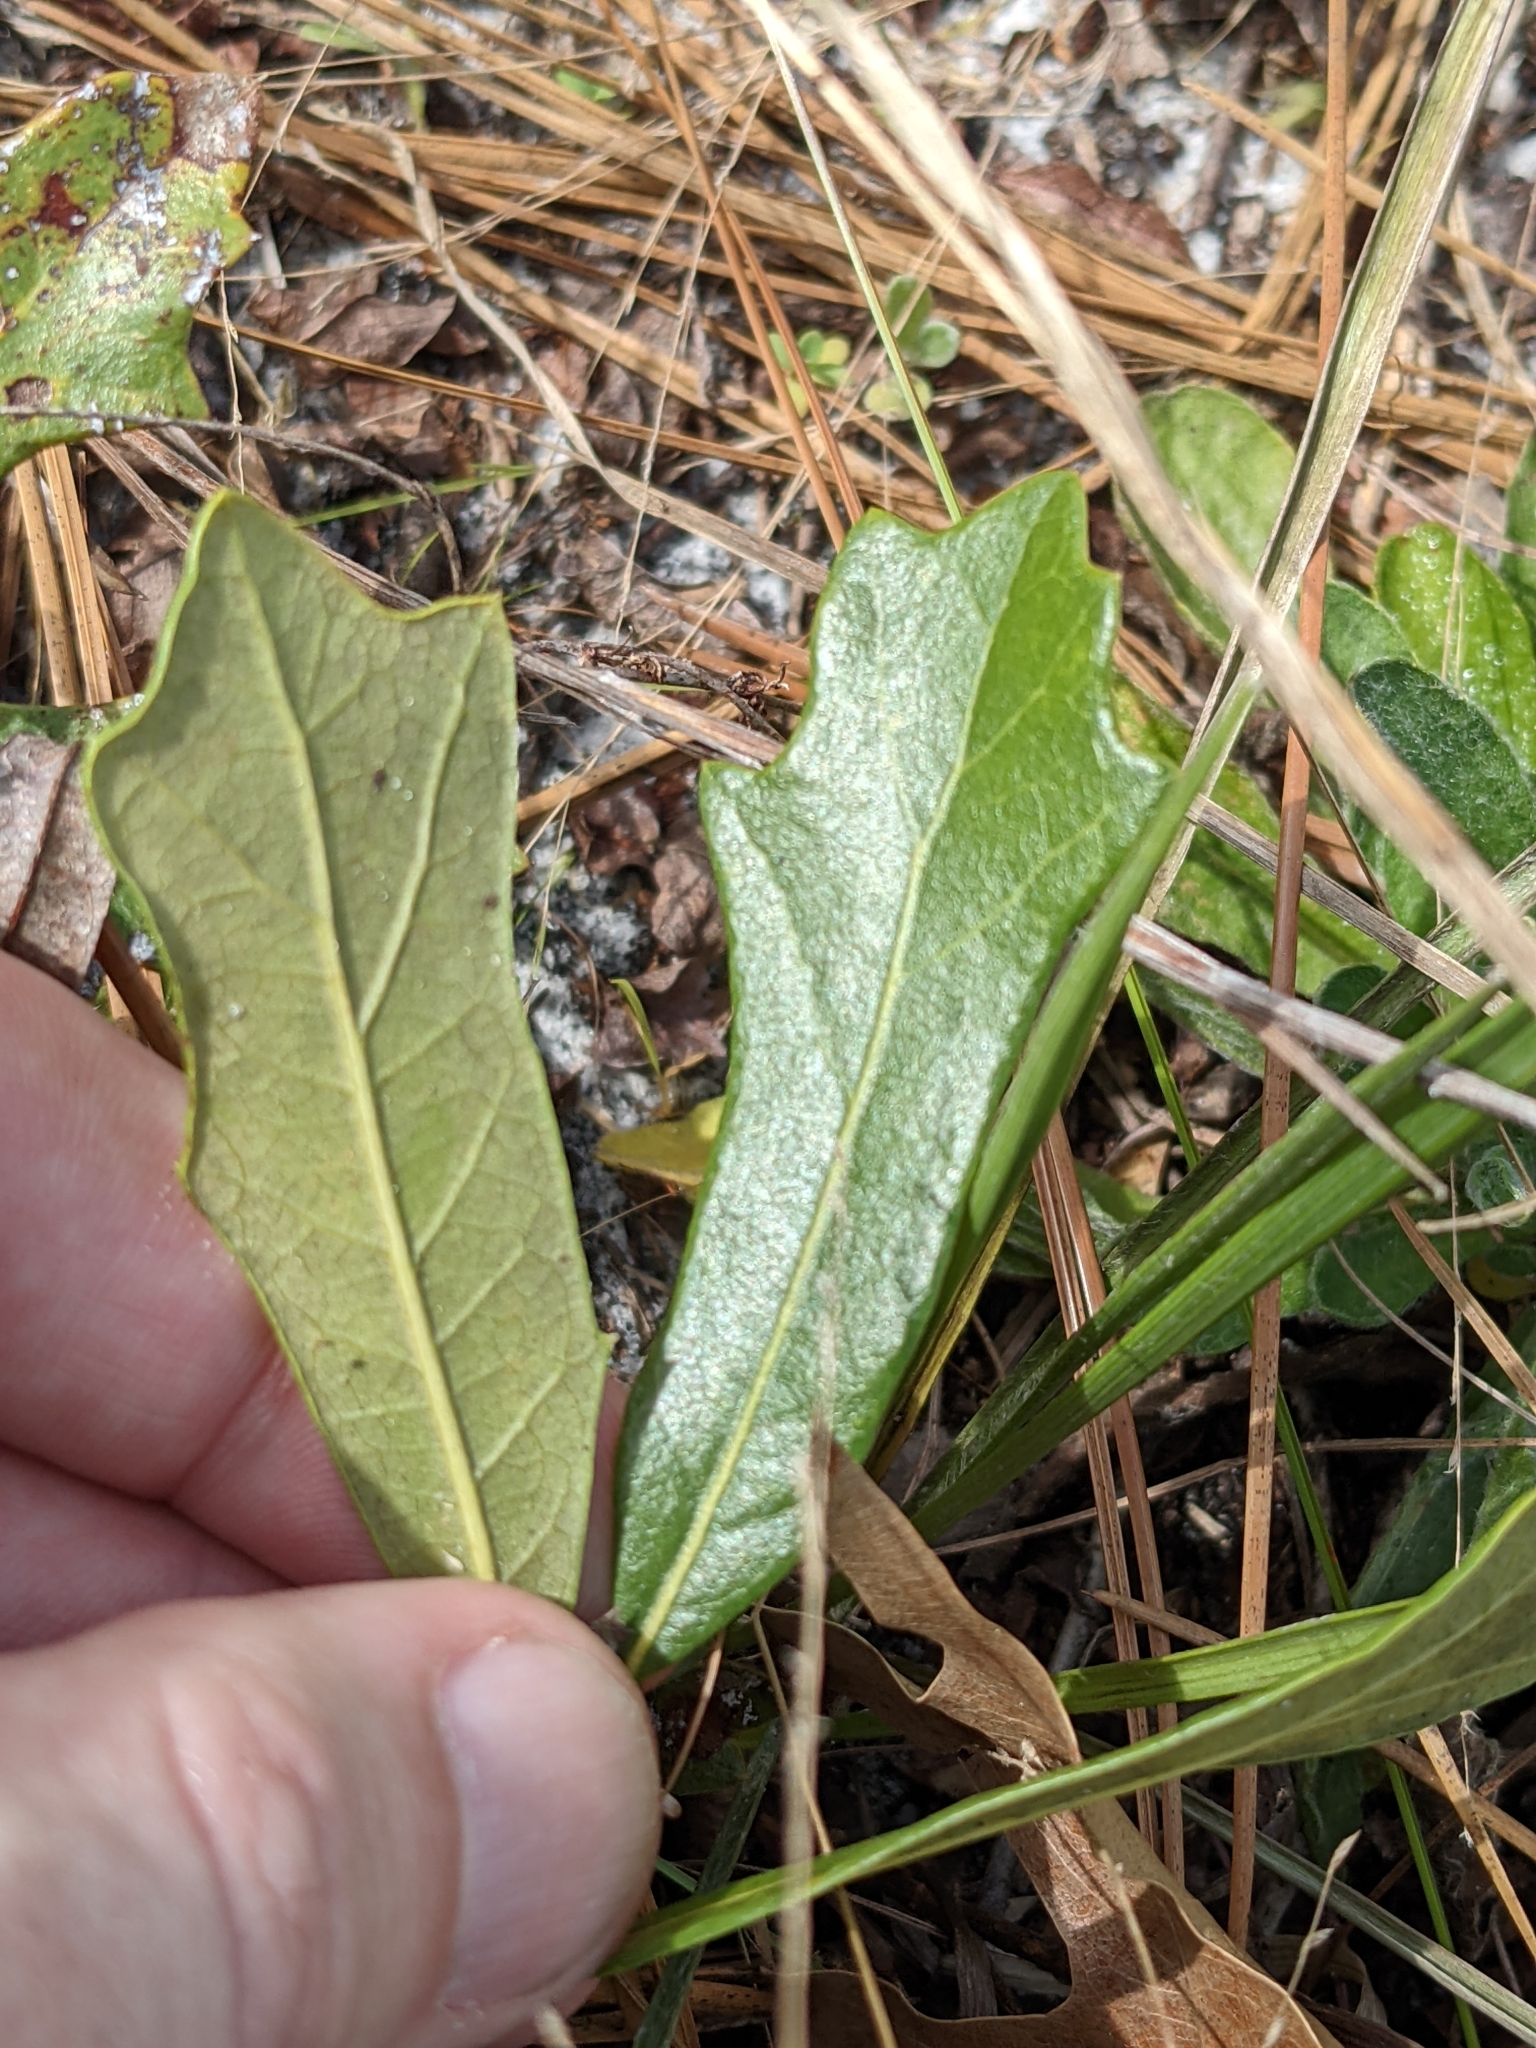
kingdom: Plantae
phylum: Tracheophyta
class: Magnoliopsida
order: Fagales
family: Fagaceae
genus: Quercus
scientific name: Quercus minima
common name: Dwarf live oak
